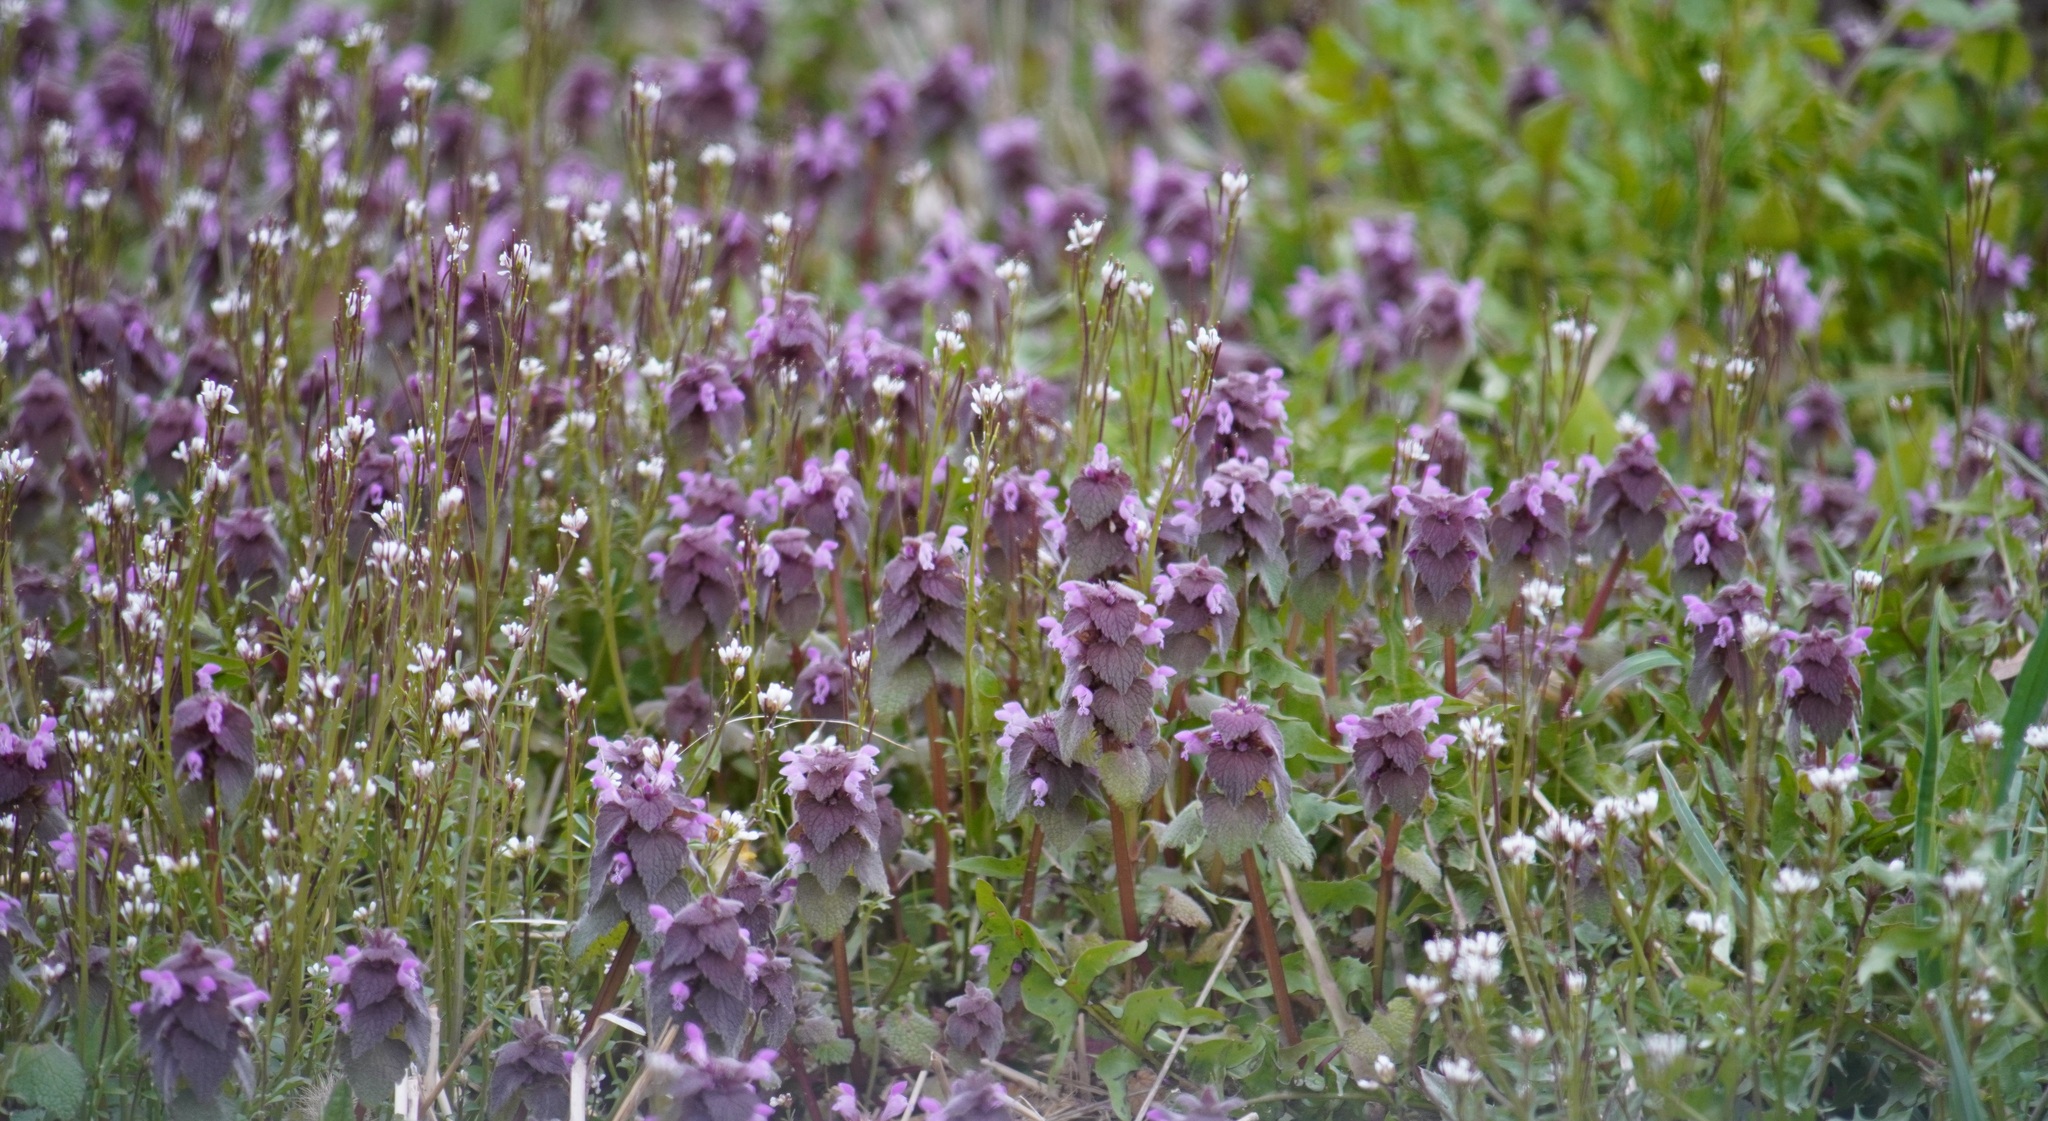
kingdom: Plantae
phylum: Tracheophyta
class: Magnoliopsida
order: Lamiales
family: Lamiaceae
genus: Lamium
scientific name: Lamium purpureum
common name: Red dead-nettle
